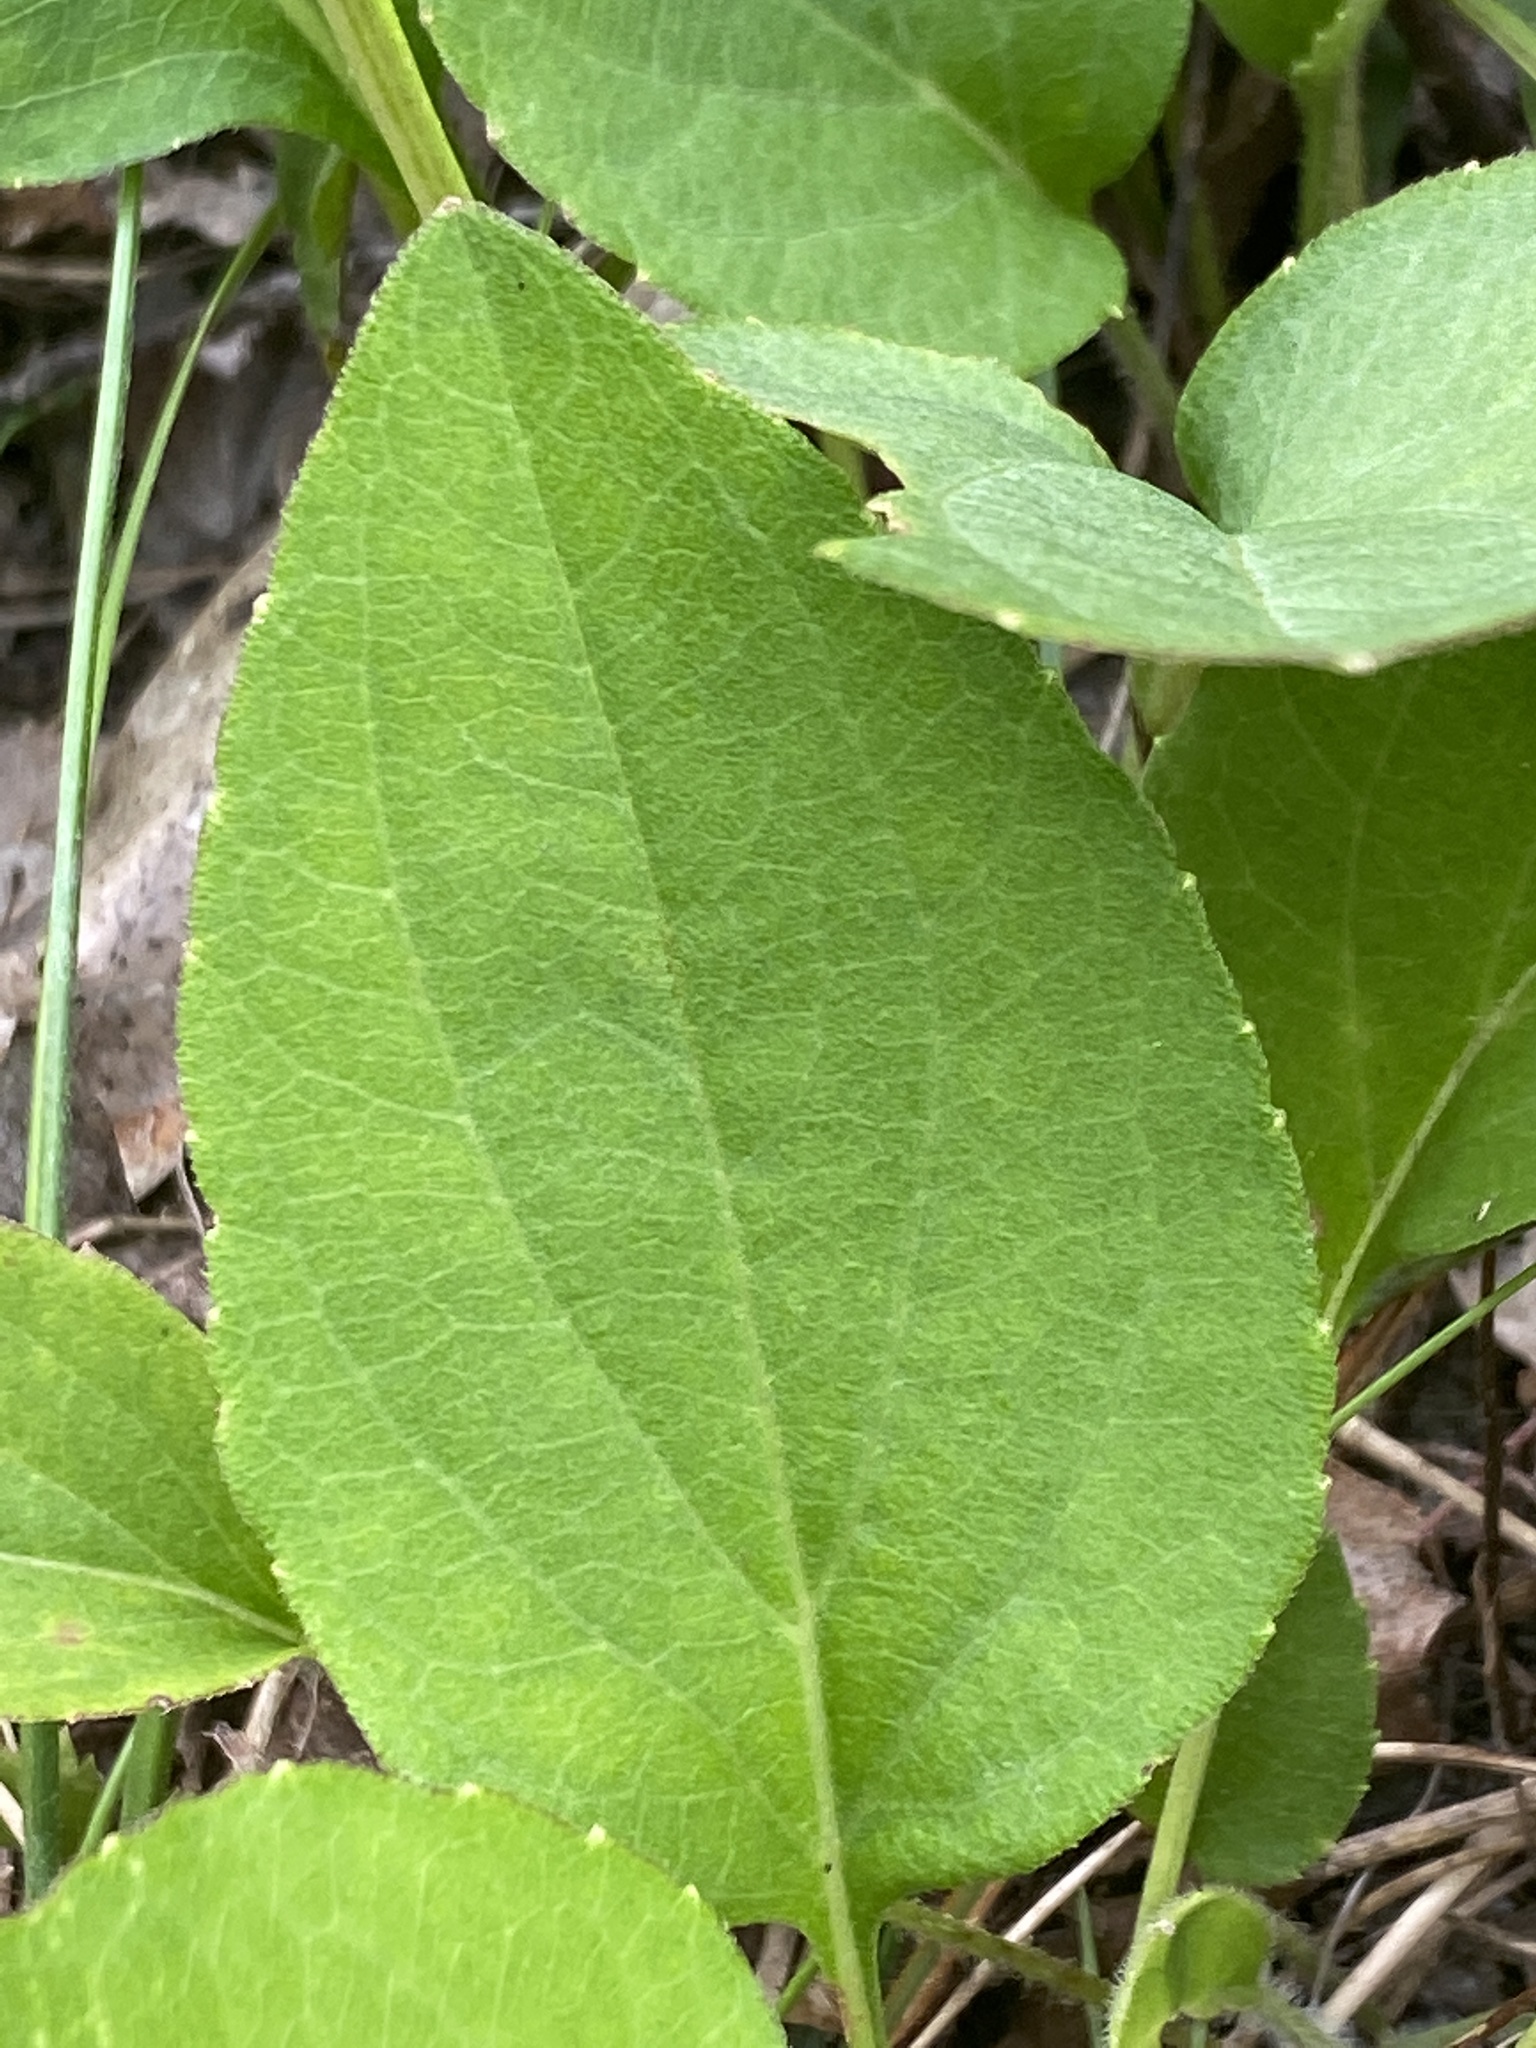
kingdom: Plantae
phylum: Tracheophyta
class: Magnoliopsida
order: Asterales
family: Asteraceae
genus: Rudbeckia
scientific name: Rudbeckia heliopsidis
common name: Little river black-eyed-susan
